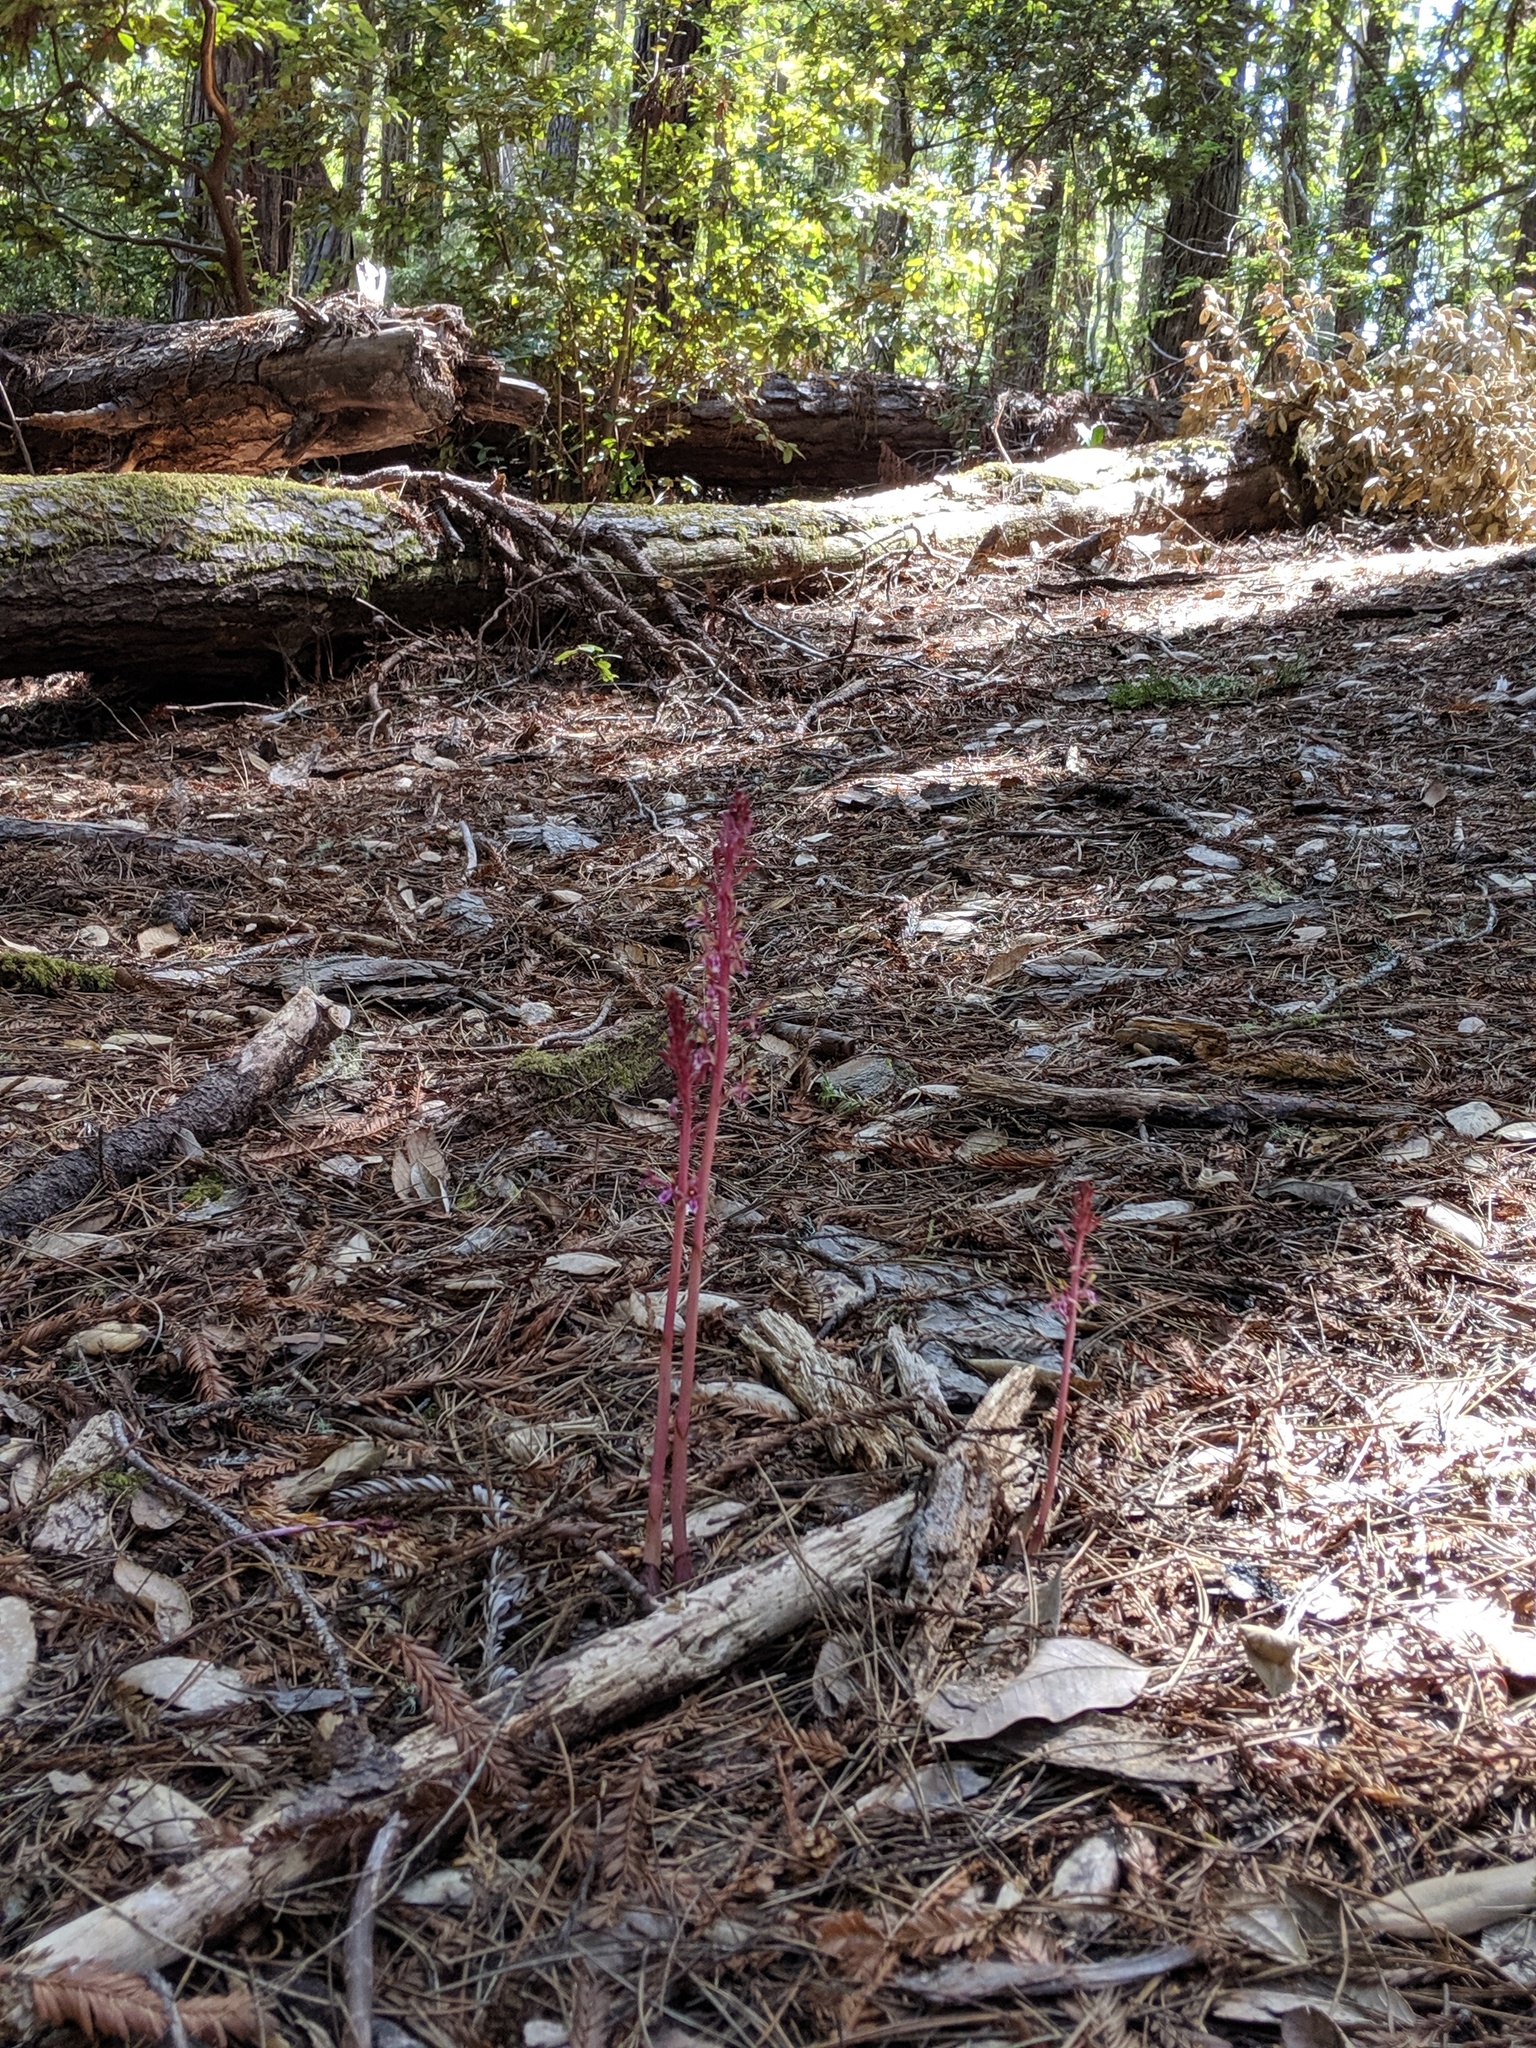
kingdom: Plantae
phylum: Tracheophyta
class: Liliopsida
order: Asparagales
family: Orchidaceae
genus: Corallorhiza
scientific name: Corallorhiza mertensiana
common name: Pacific coralroot
